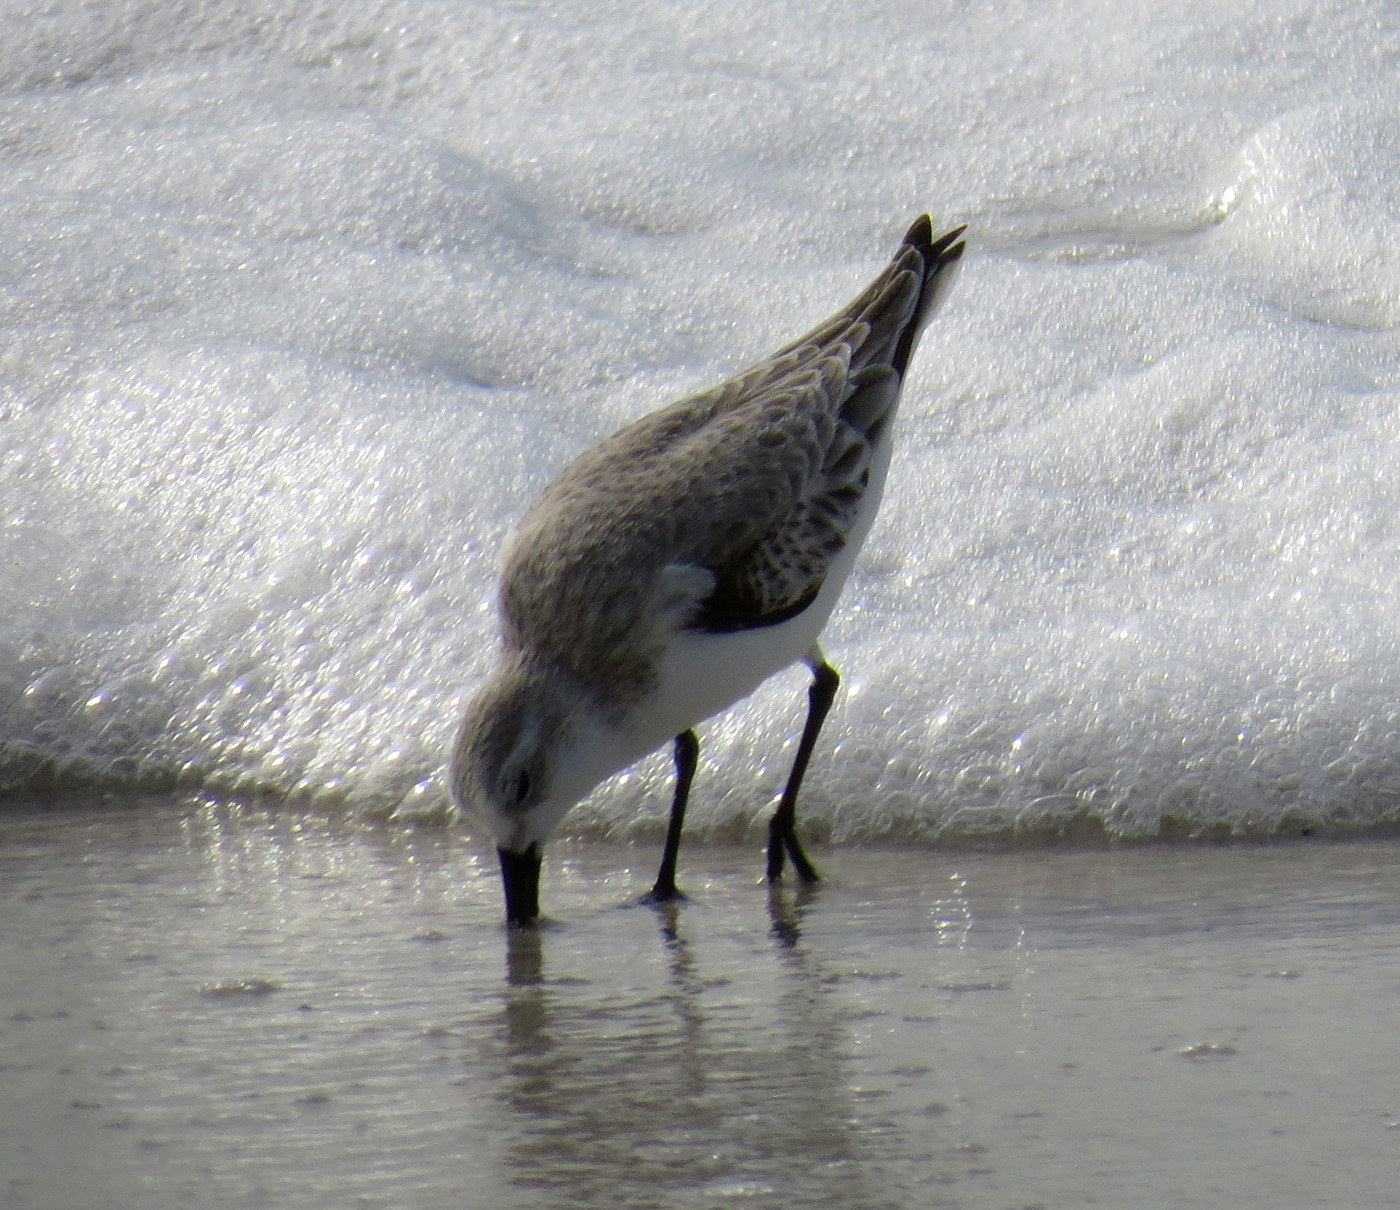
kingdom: Animalia
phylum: Chordata
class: Aves
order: Charadriiformes
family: Scolopacidae
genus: Calidris
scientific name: Calidris alba
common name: Sanderling
